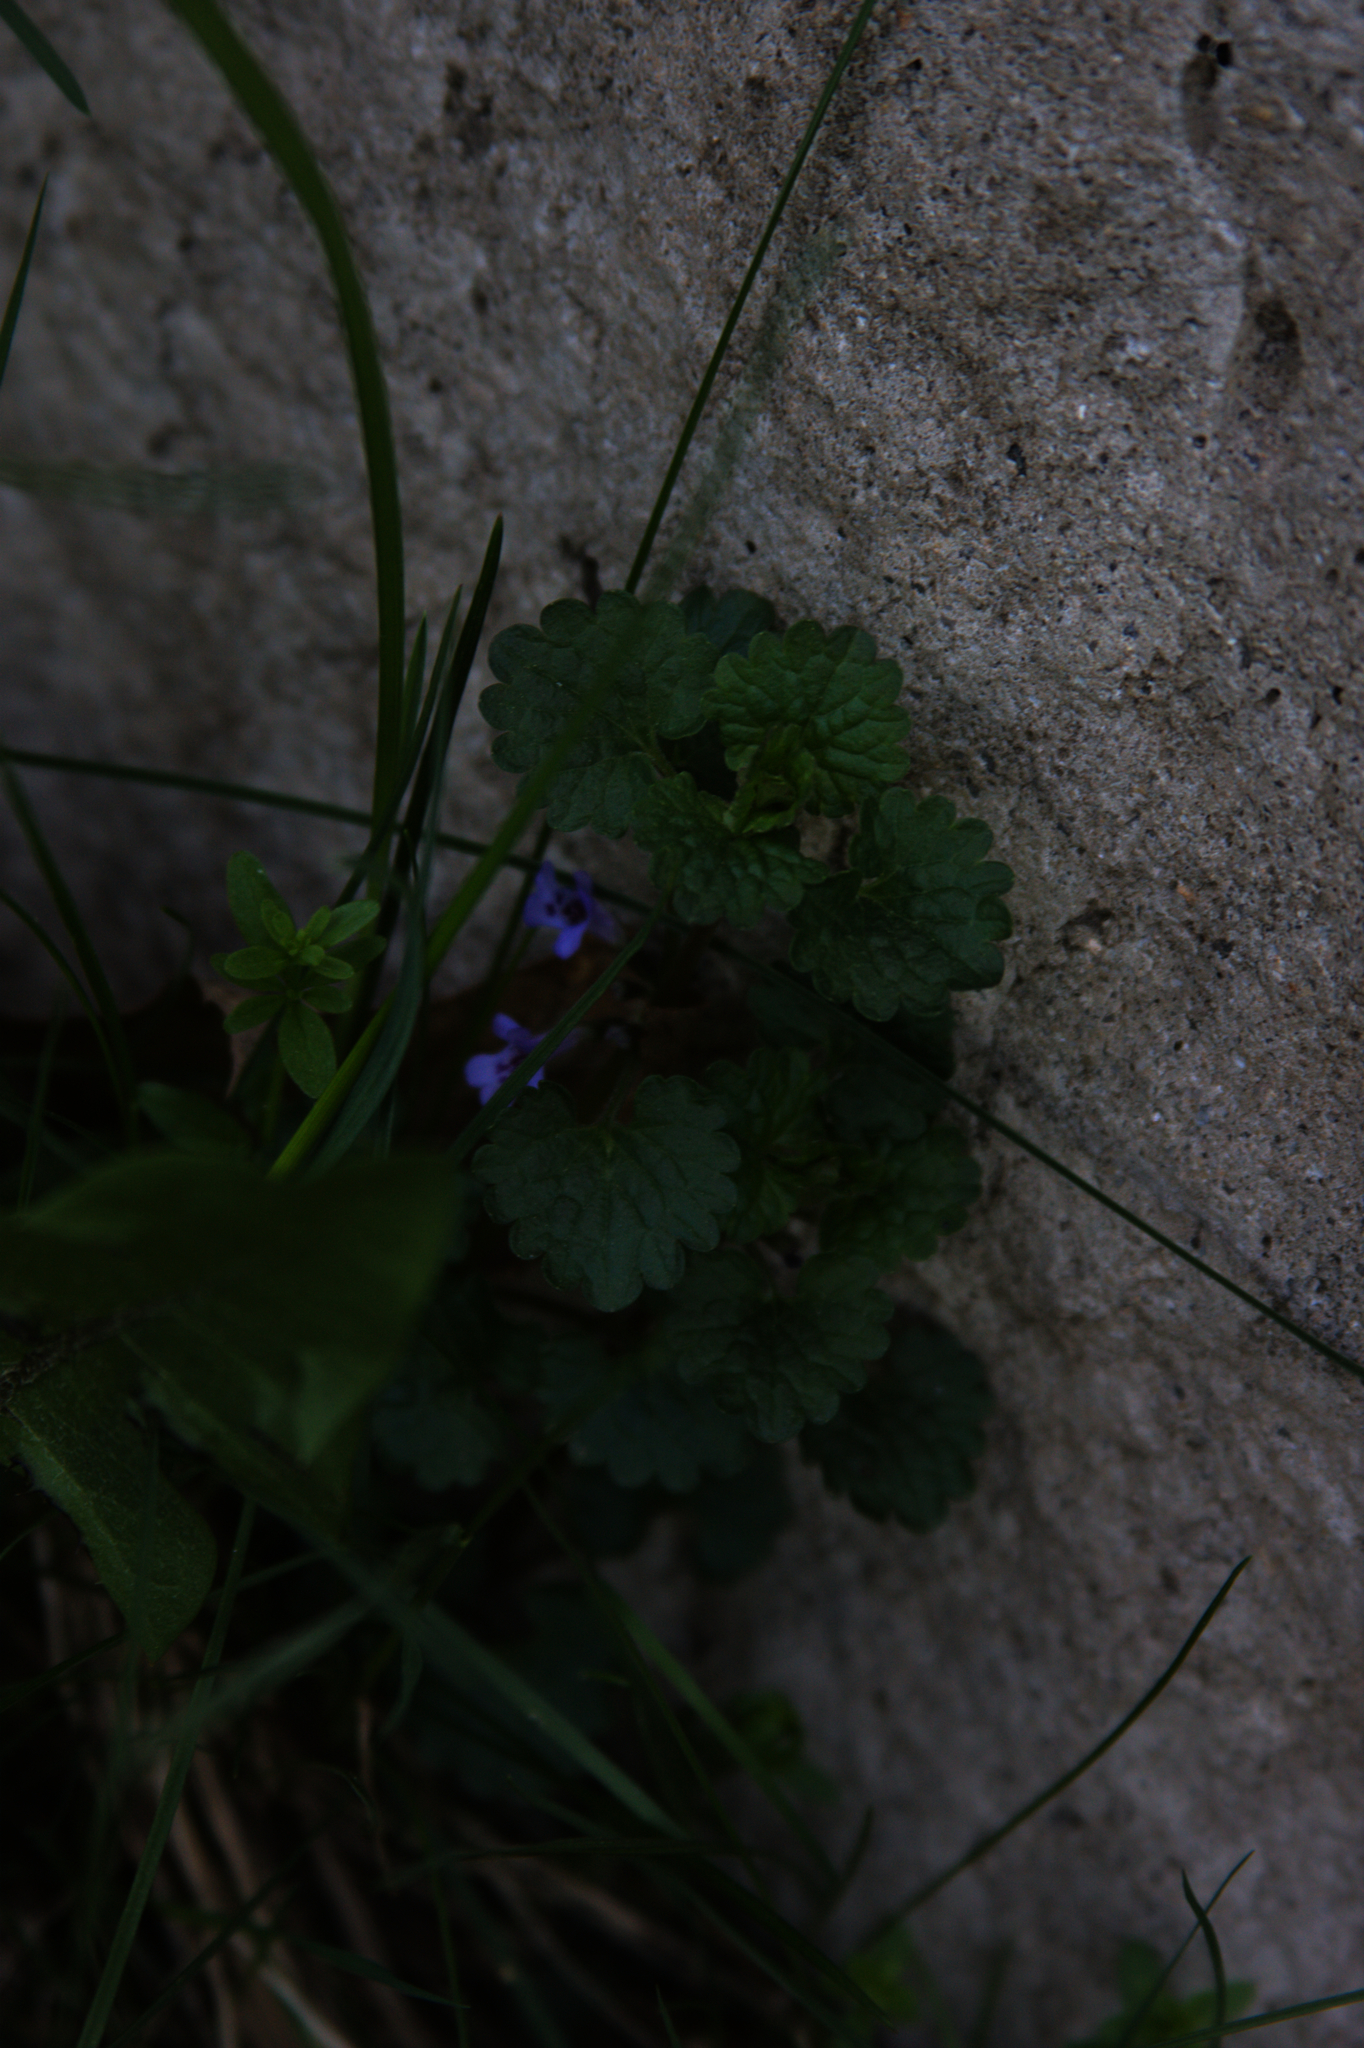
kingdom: Plantae
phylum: Tracheophyta
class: Magnoliopsida
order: Lamiales
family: Lamiaceae
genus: Glechoma
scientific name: Glechoma hederacea
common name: Ground ivy
